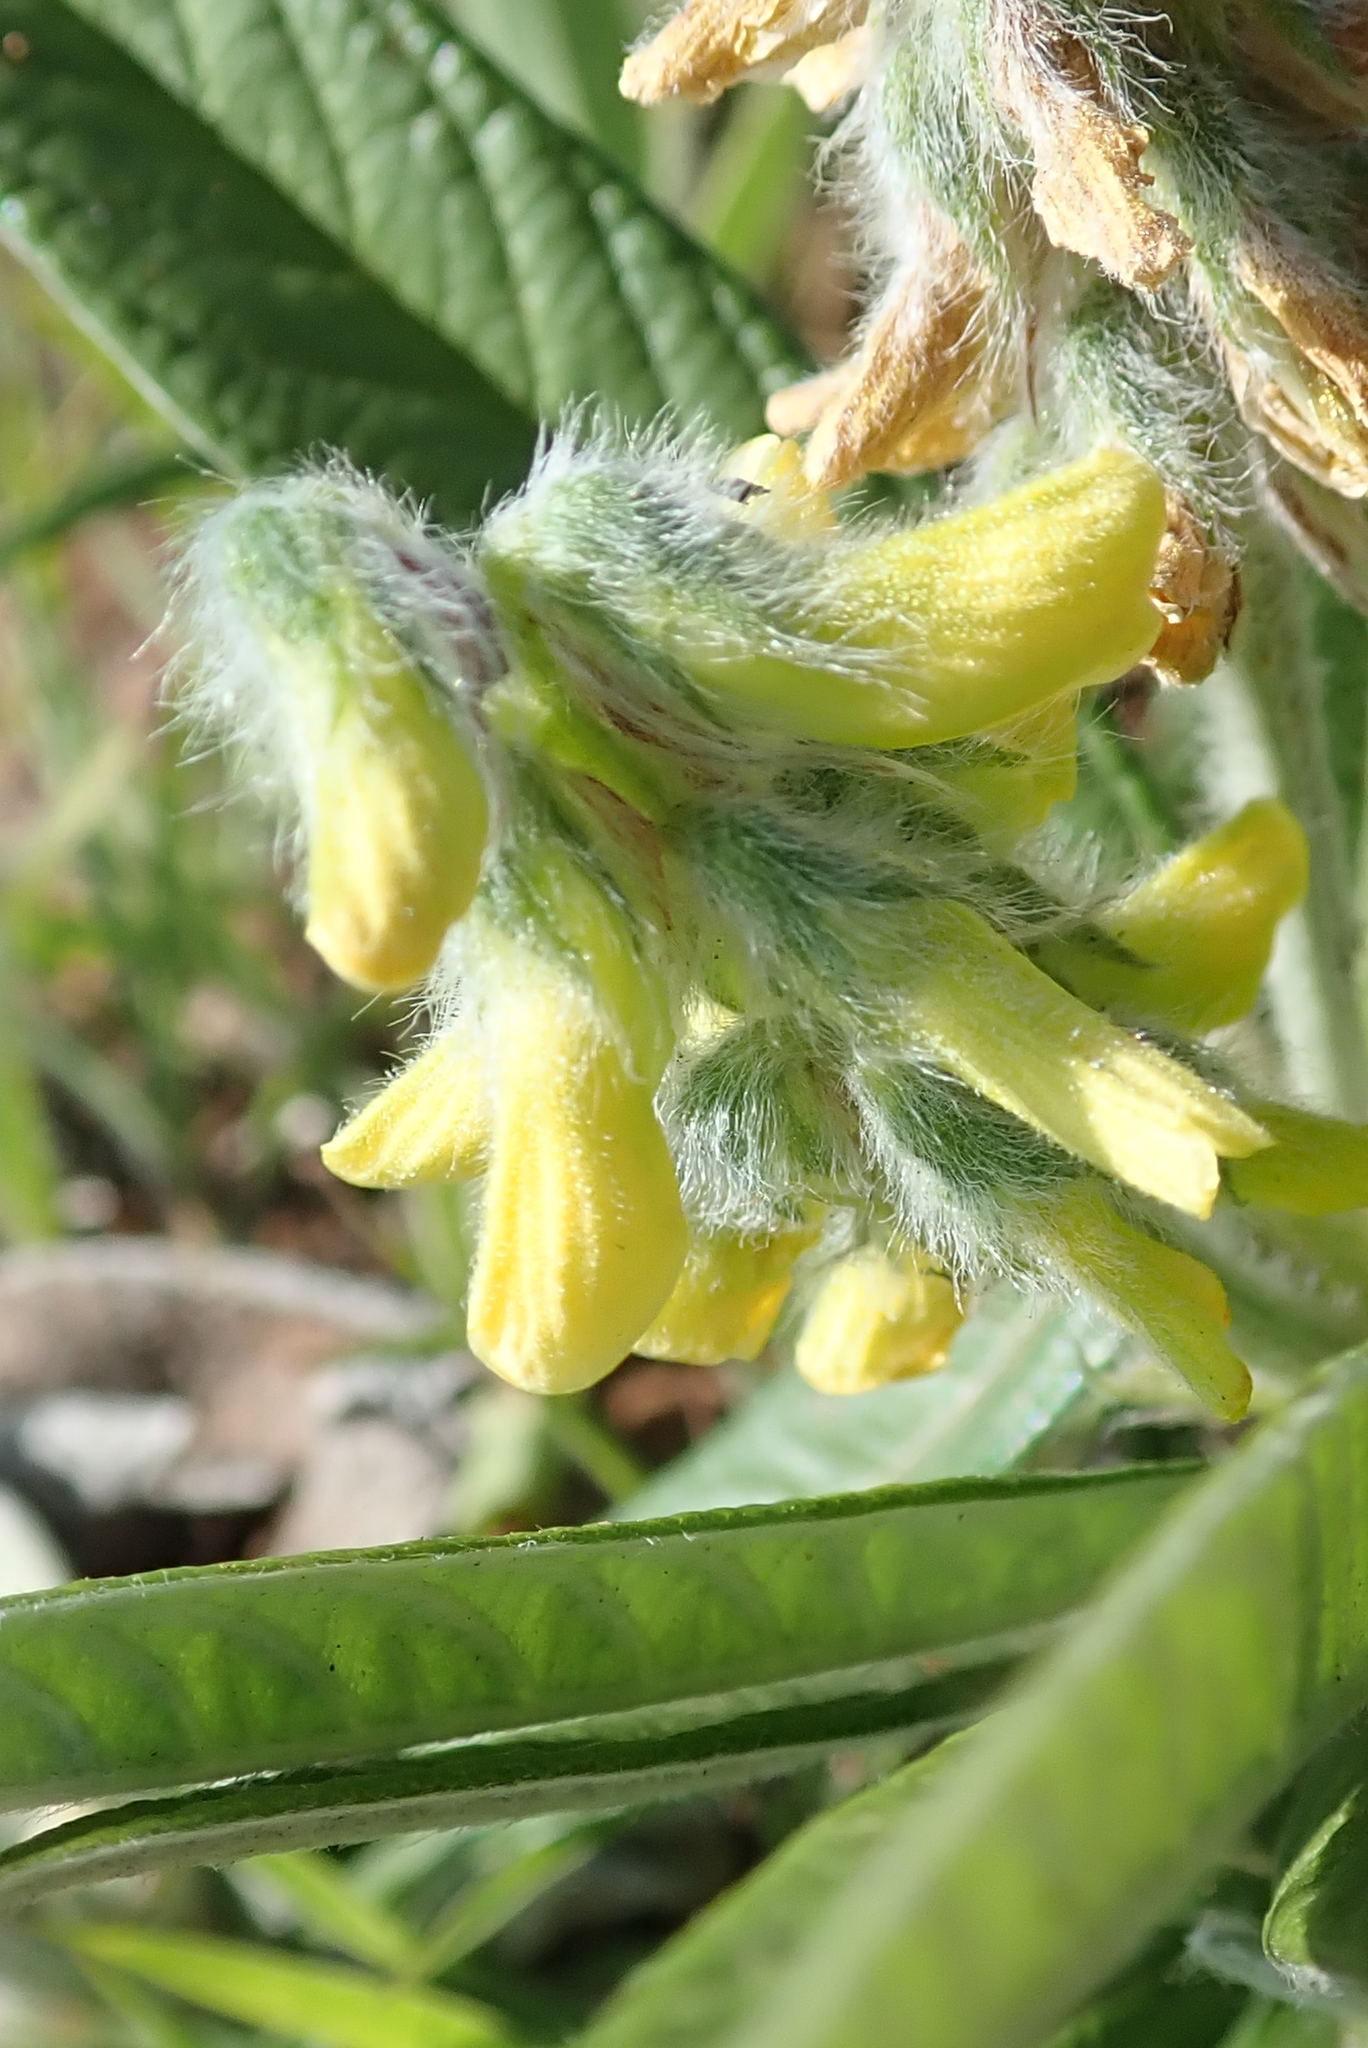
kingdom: Plantae
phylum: Tracheophyta
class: Magnoliopsida
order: Fabales
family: Fabaceae
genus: Eriosema
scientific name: Eriosema salignum
